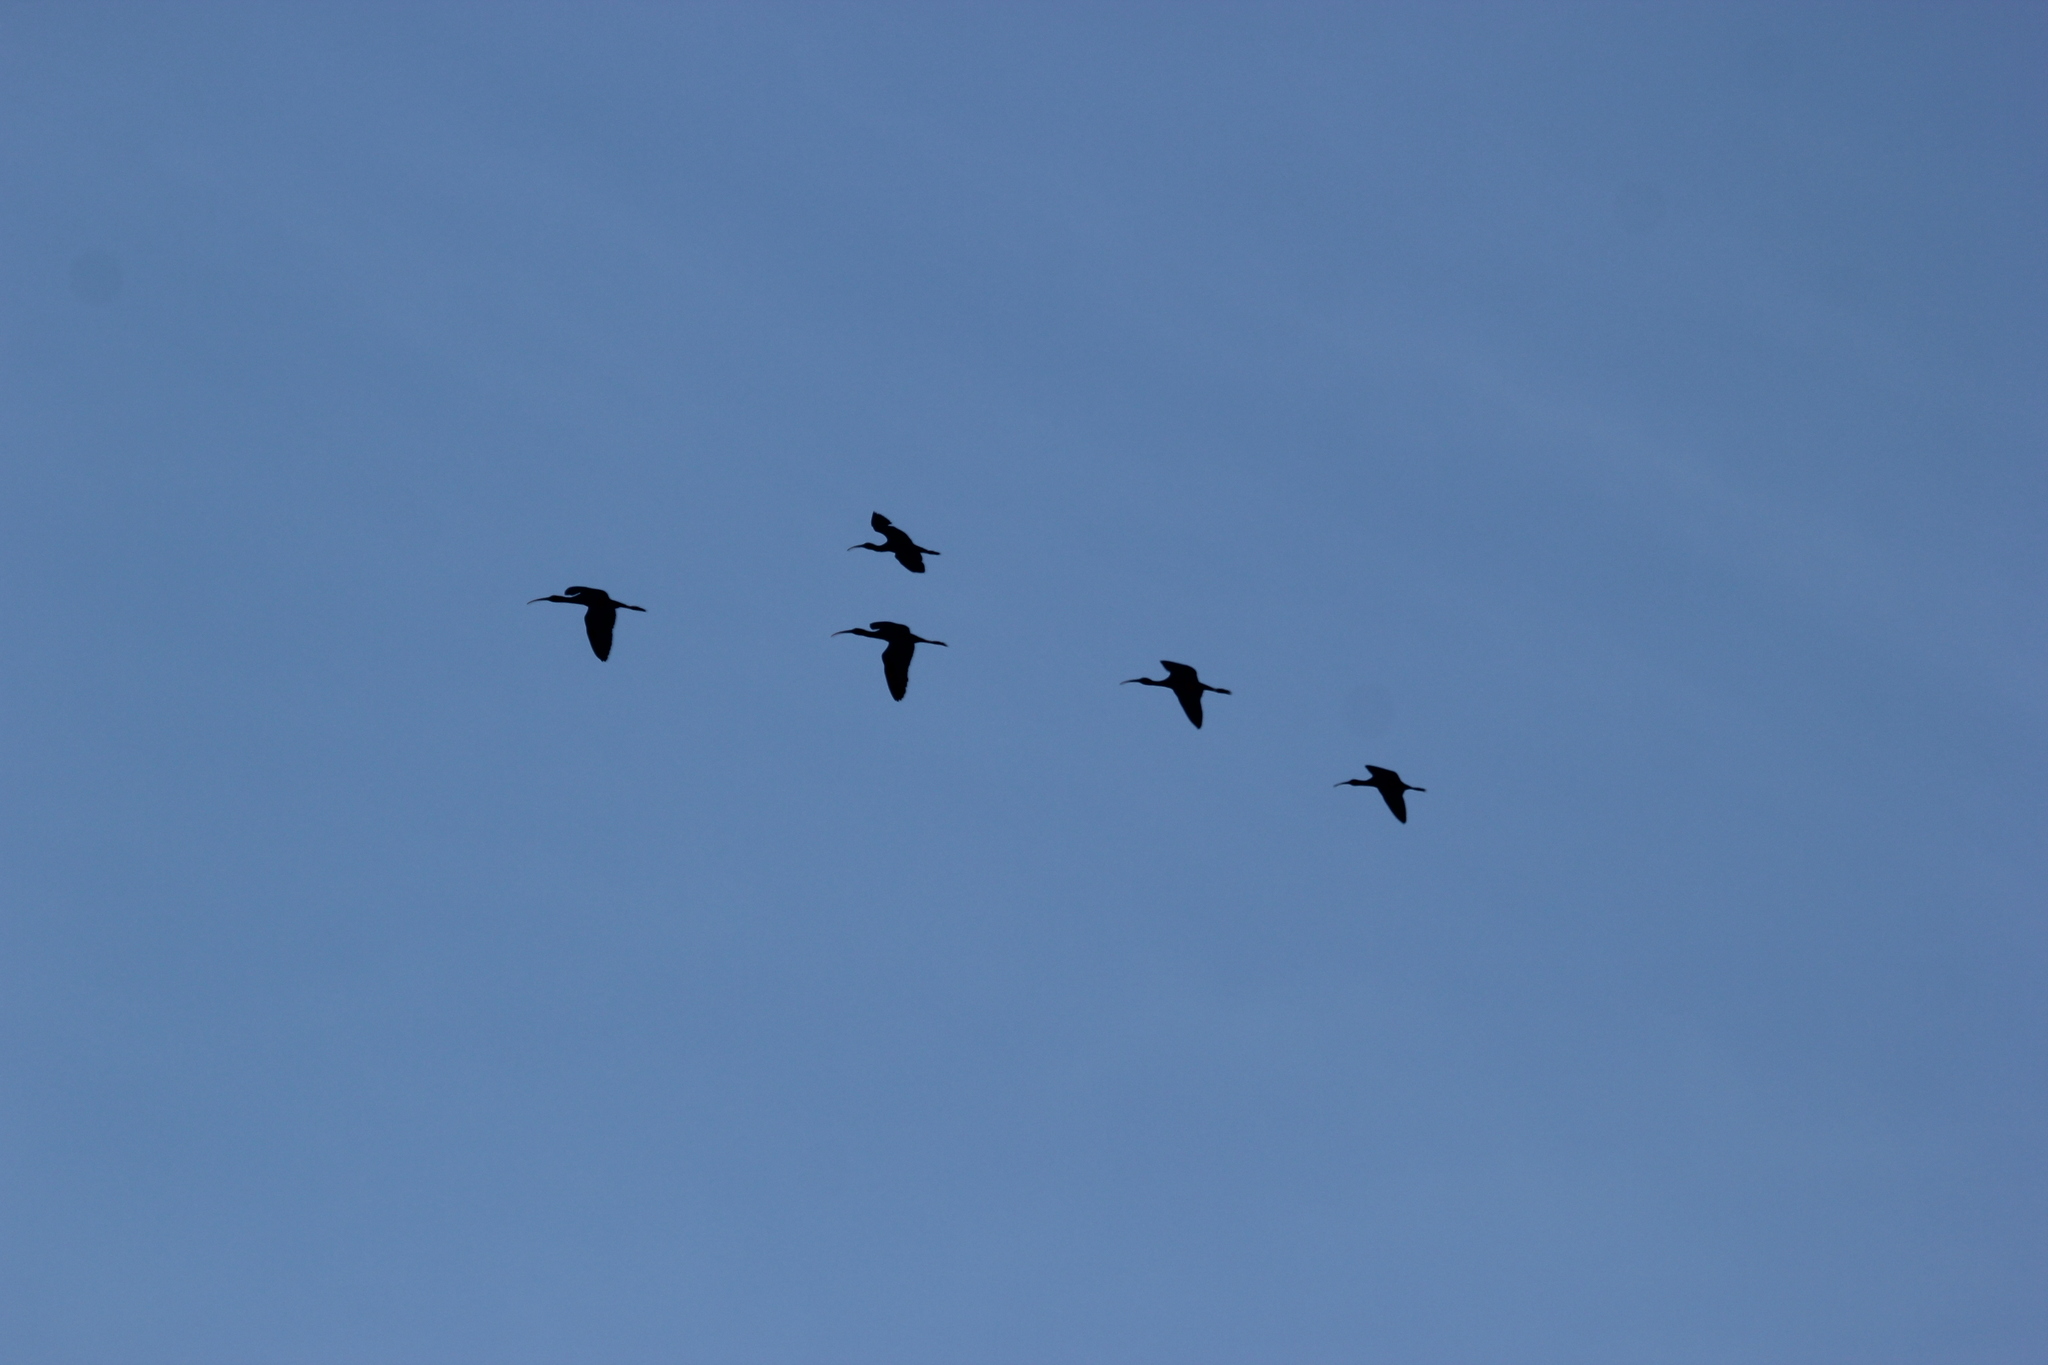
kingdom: Animalia
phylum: Chordata
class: Aves
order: Pelecaniformes
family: Threskiornithidae
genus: Plegadis
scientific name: Plegadis falcinellus
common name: Glossy ibis
